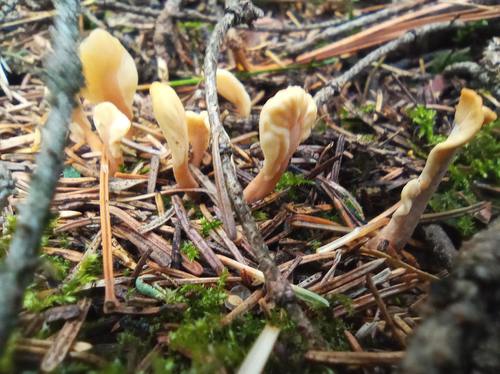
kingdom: Fungi
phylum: Ascomycota
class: Leotiomycetes
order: Rhytismatales
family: Cudoniaceae
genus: Spathularia
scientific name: Spathularia rufa
